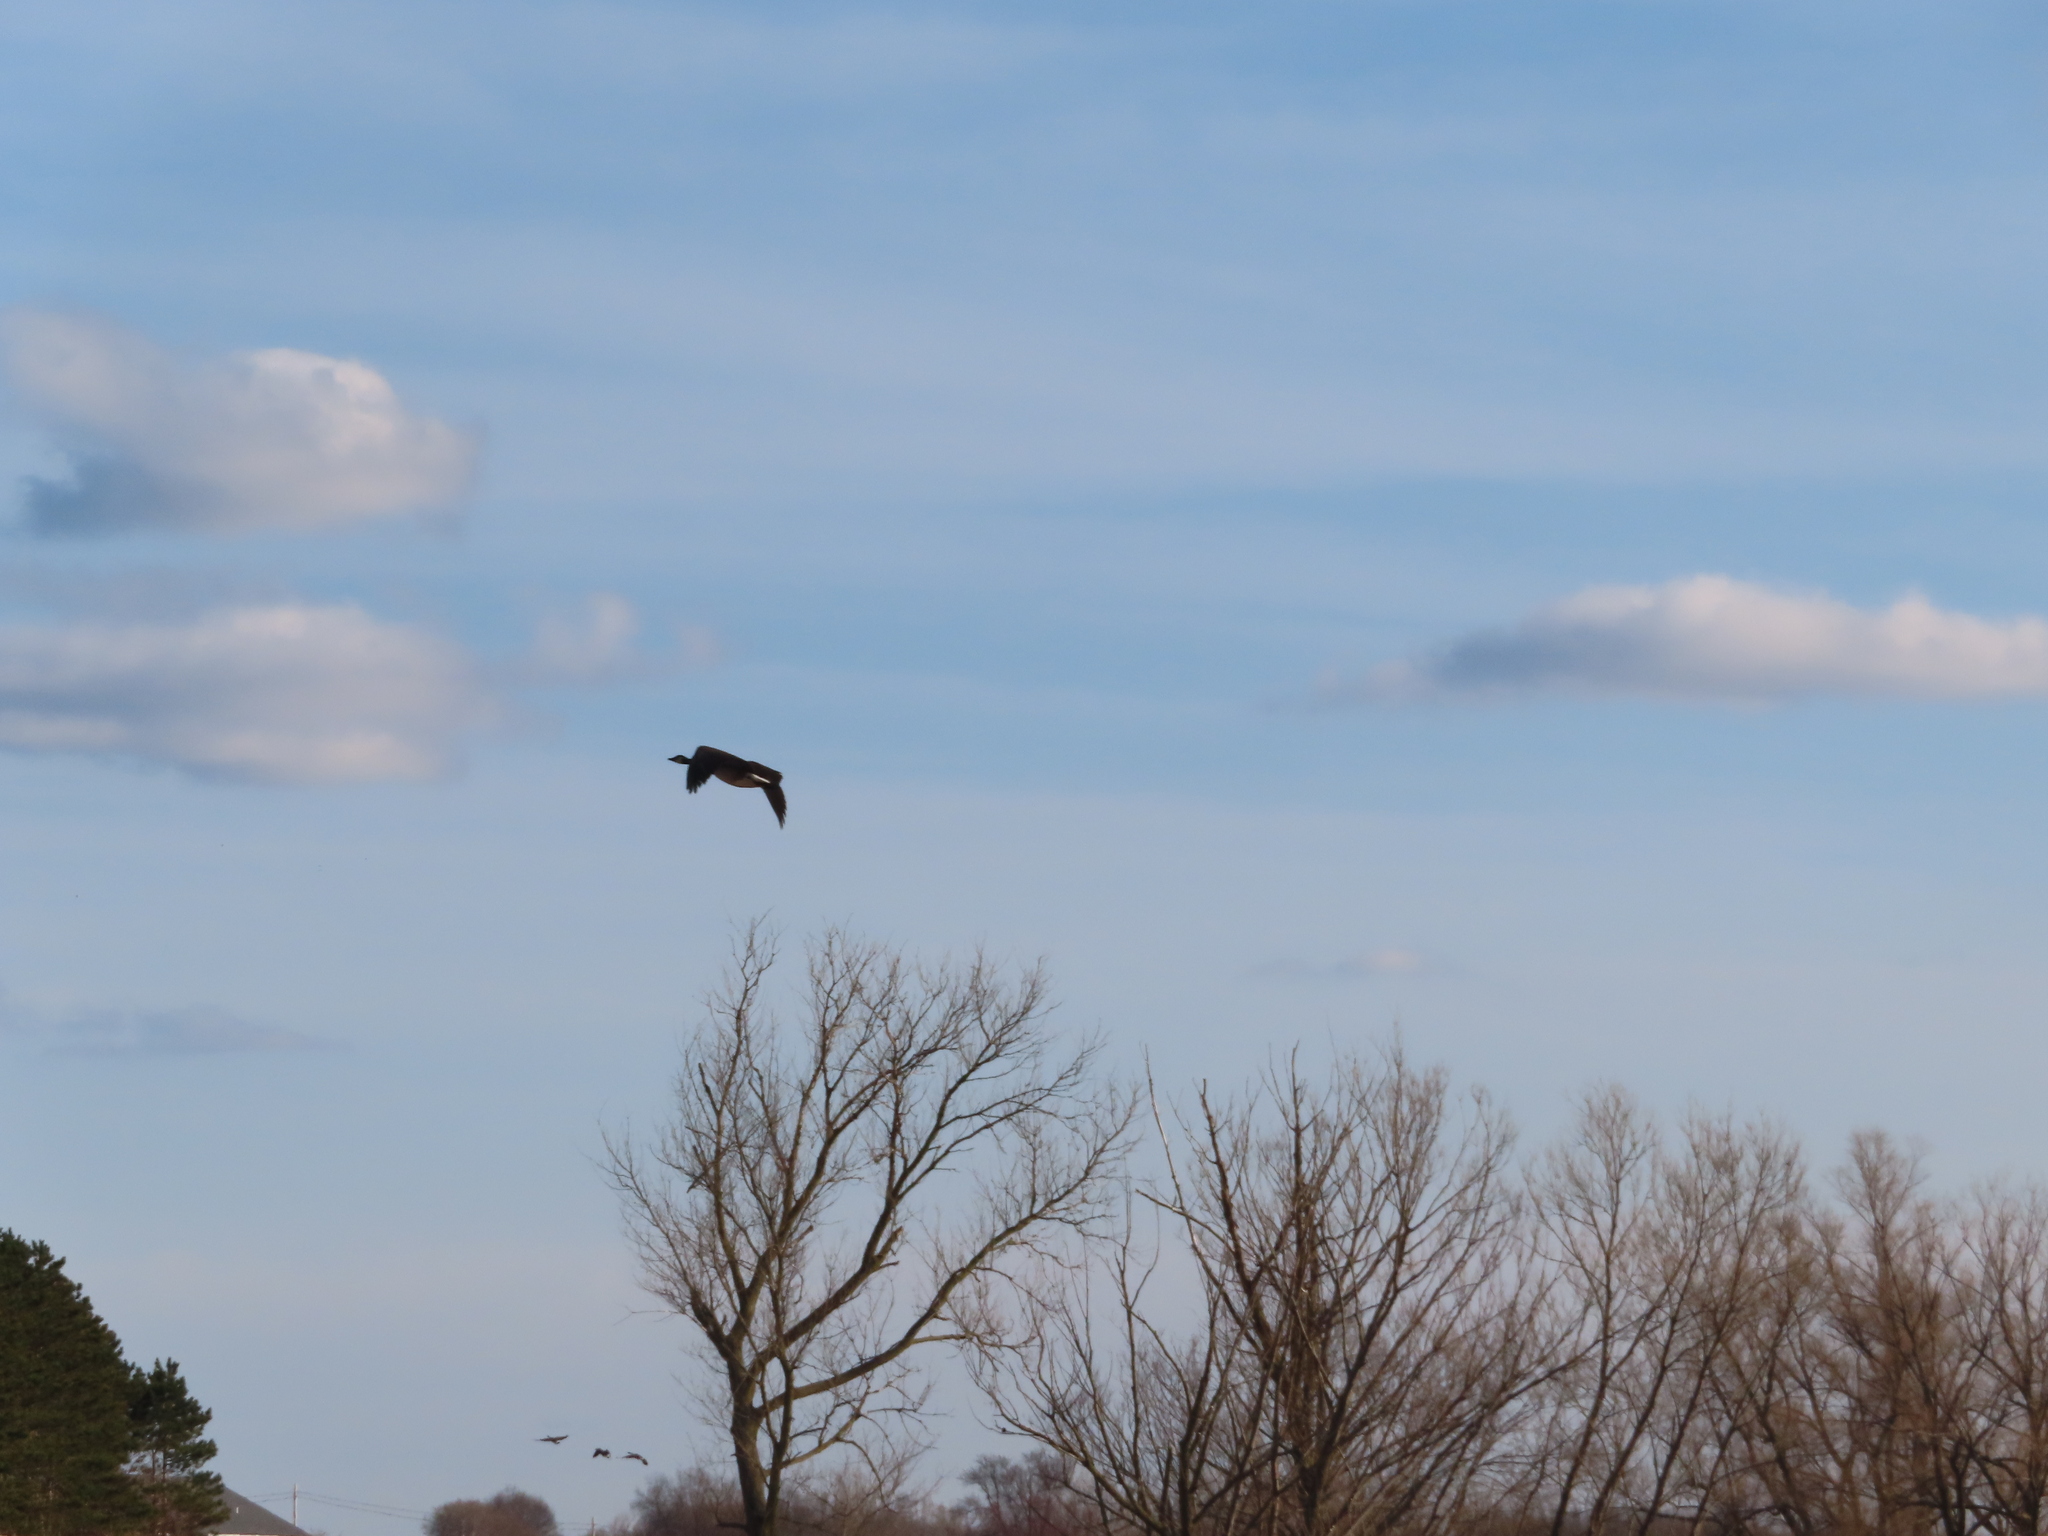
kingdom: Animalia
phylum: Chordata
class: Aves
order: Anseriformes
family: Anatidae
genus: Branta
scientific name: Branta canadensis
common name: Canada goose
